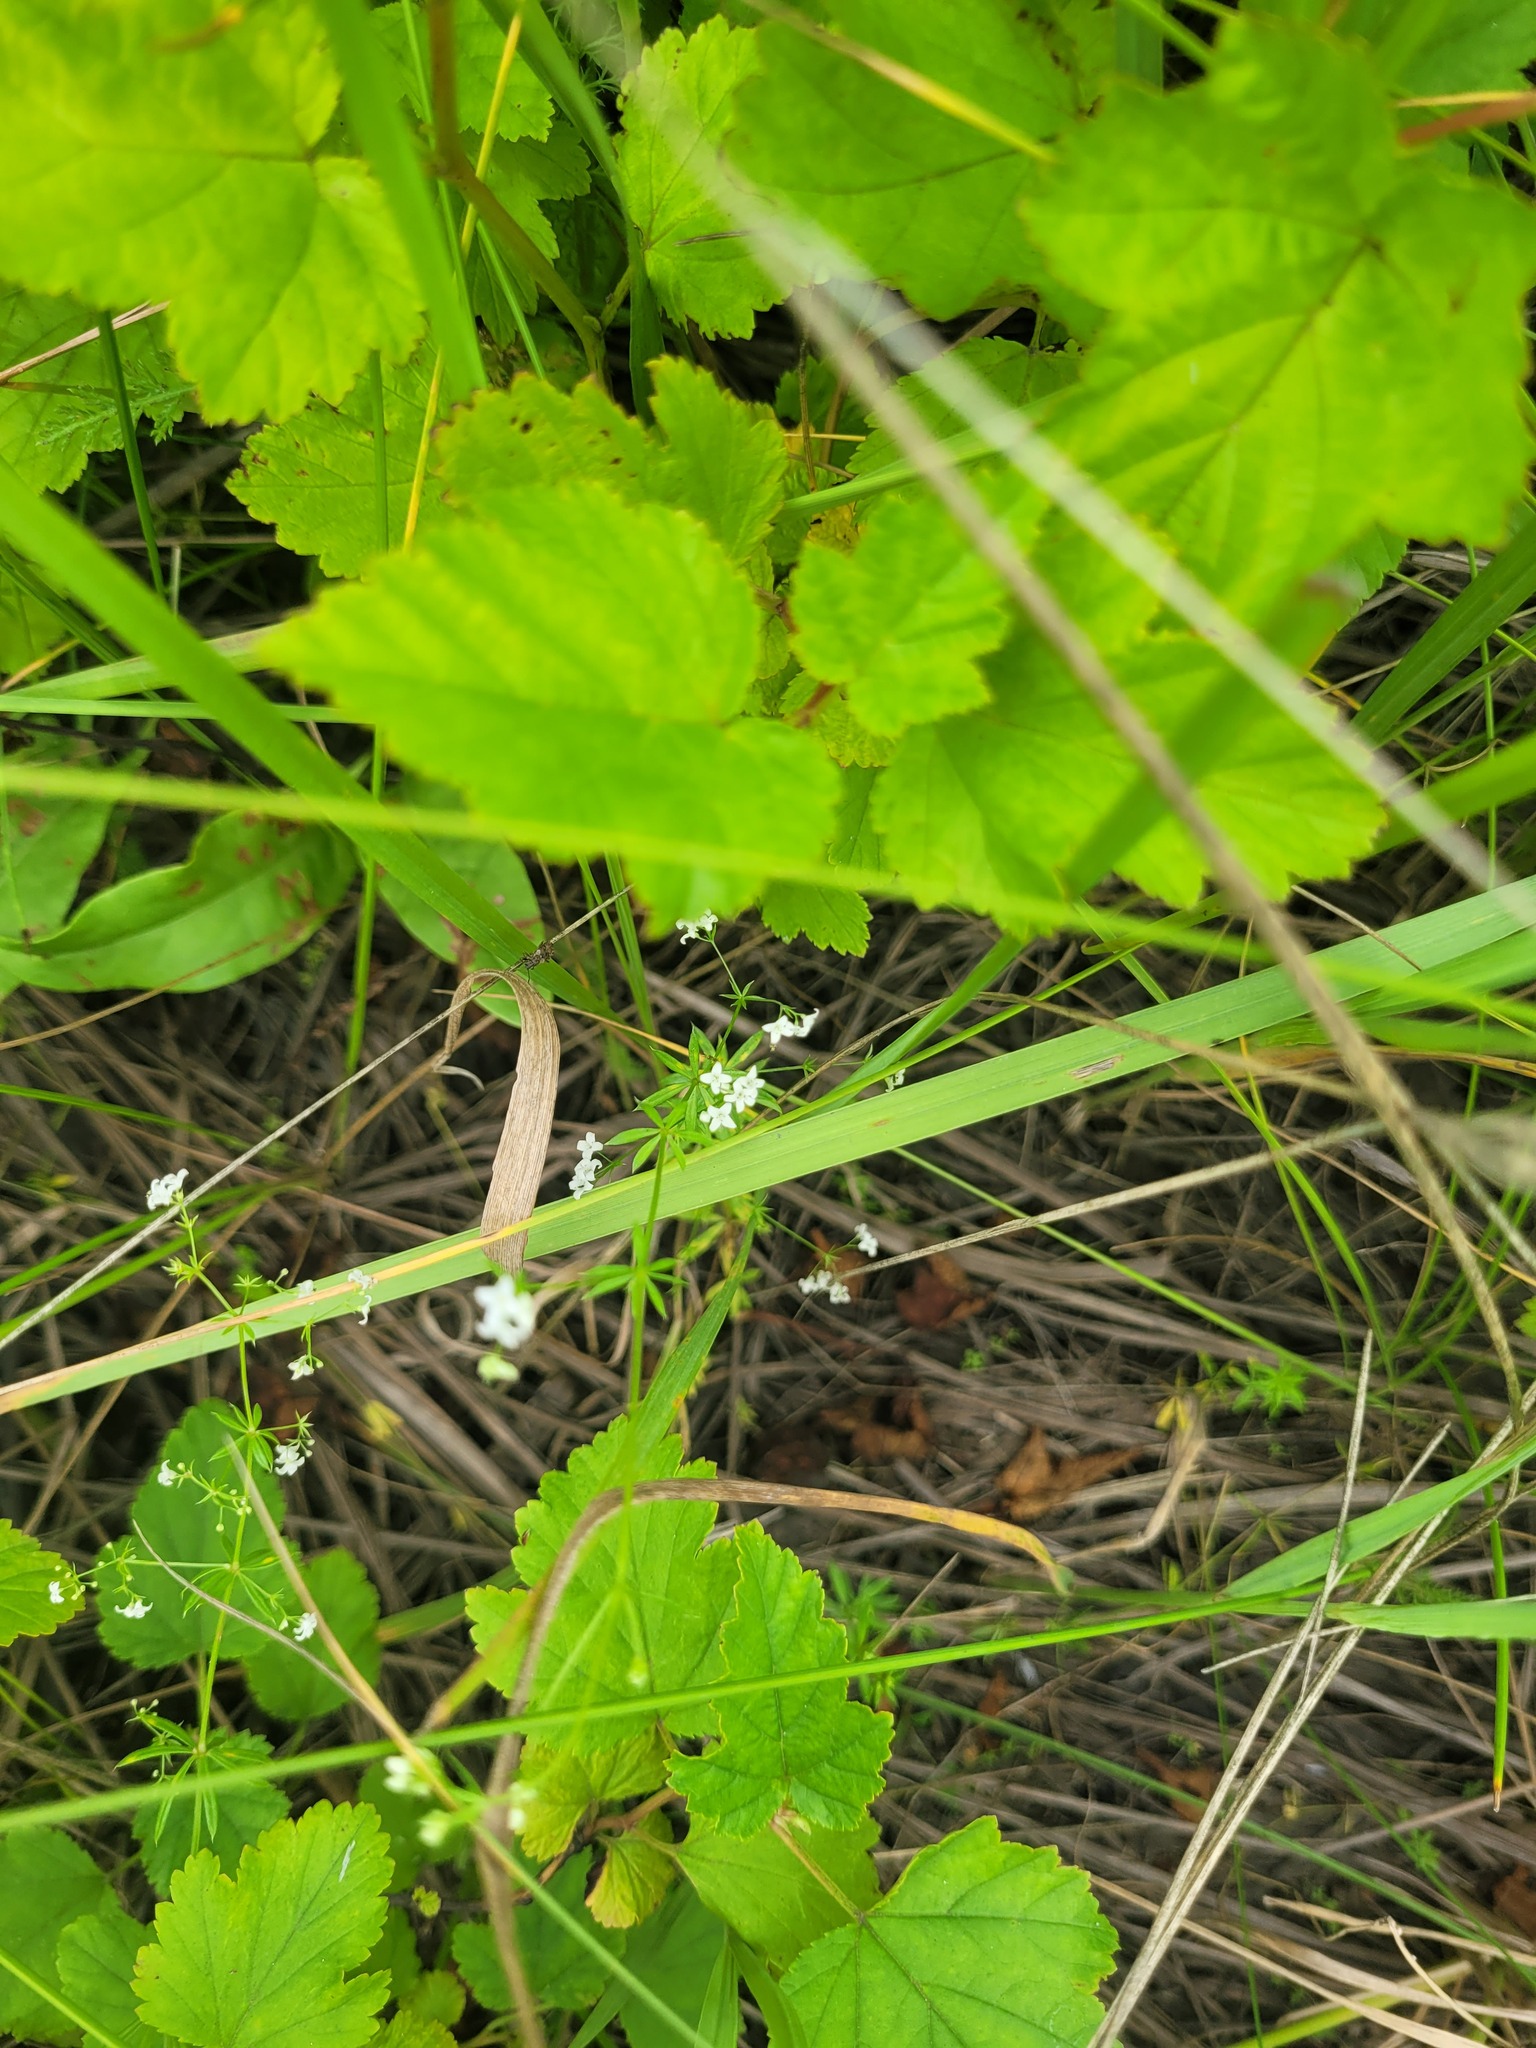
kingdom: Plantae
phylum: Tracheophyta
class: Magnoliopsida
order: Gentianales
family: Rubiaceae
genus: Galium
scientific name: Galium uliginosum
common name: Fen bedstraw
